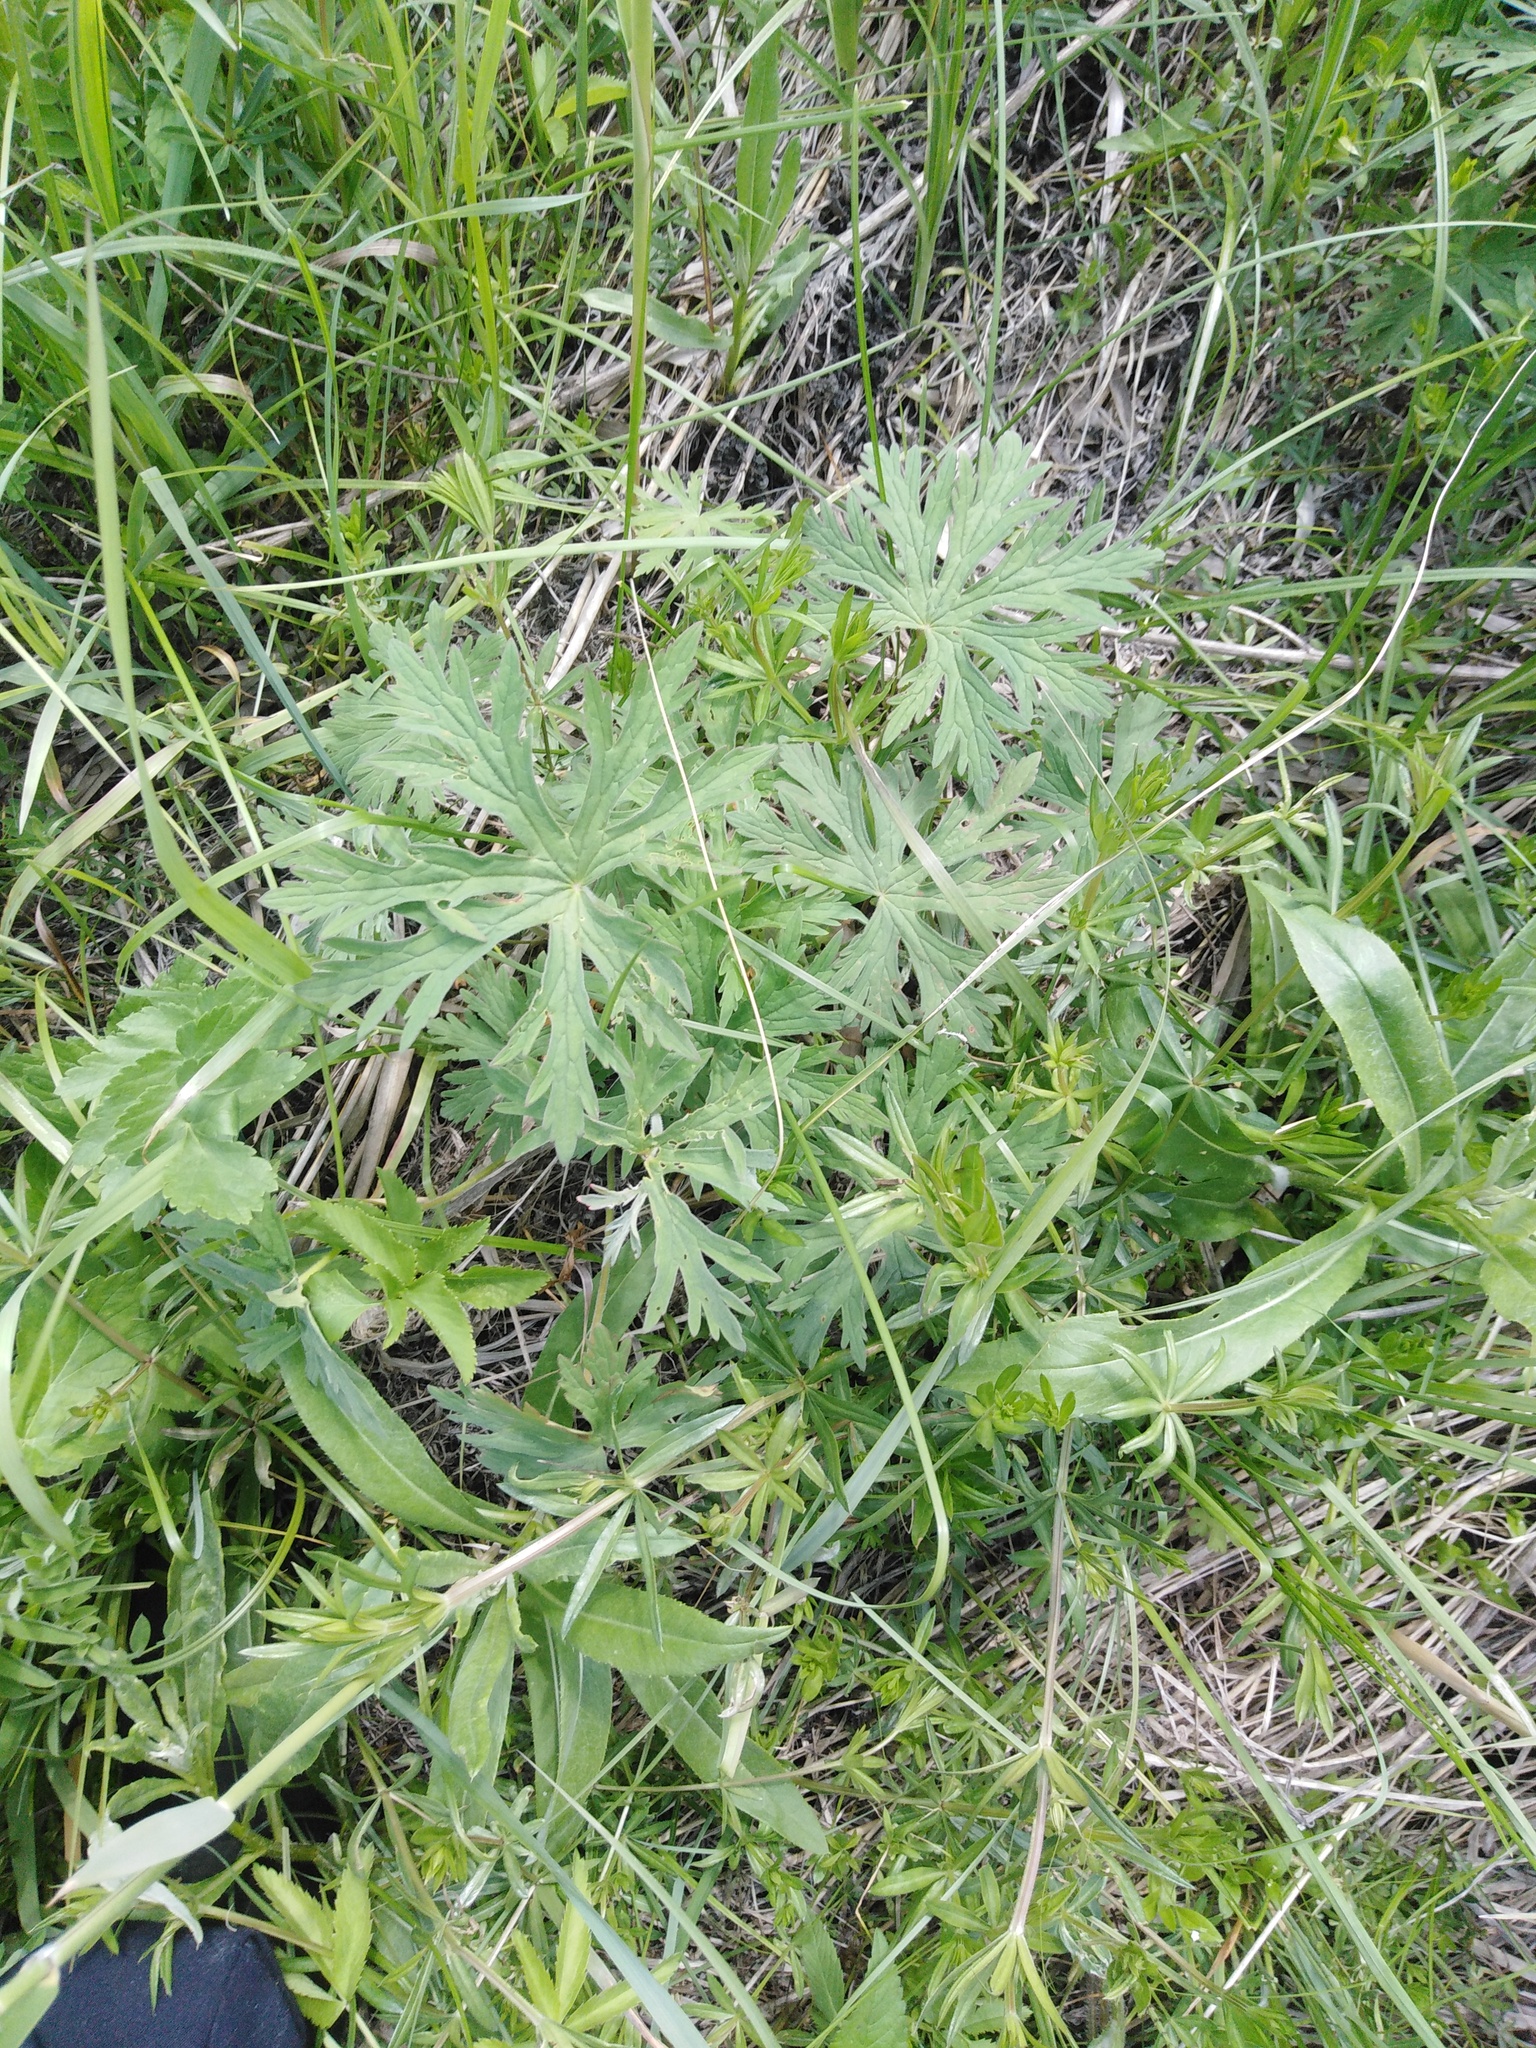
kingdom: Plantae
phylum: Tracheophyta
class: Magnoliopsida
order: Geraniales
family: Geraniaceae
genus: Geranium
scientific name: Geranium pratense
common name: Meadow crane's-bill
